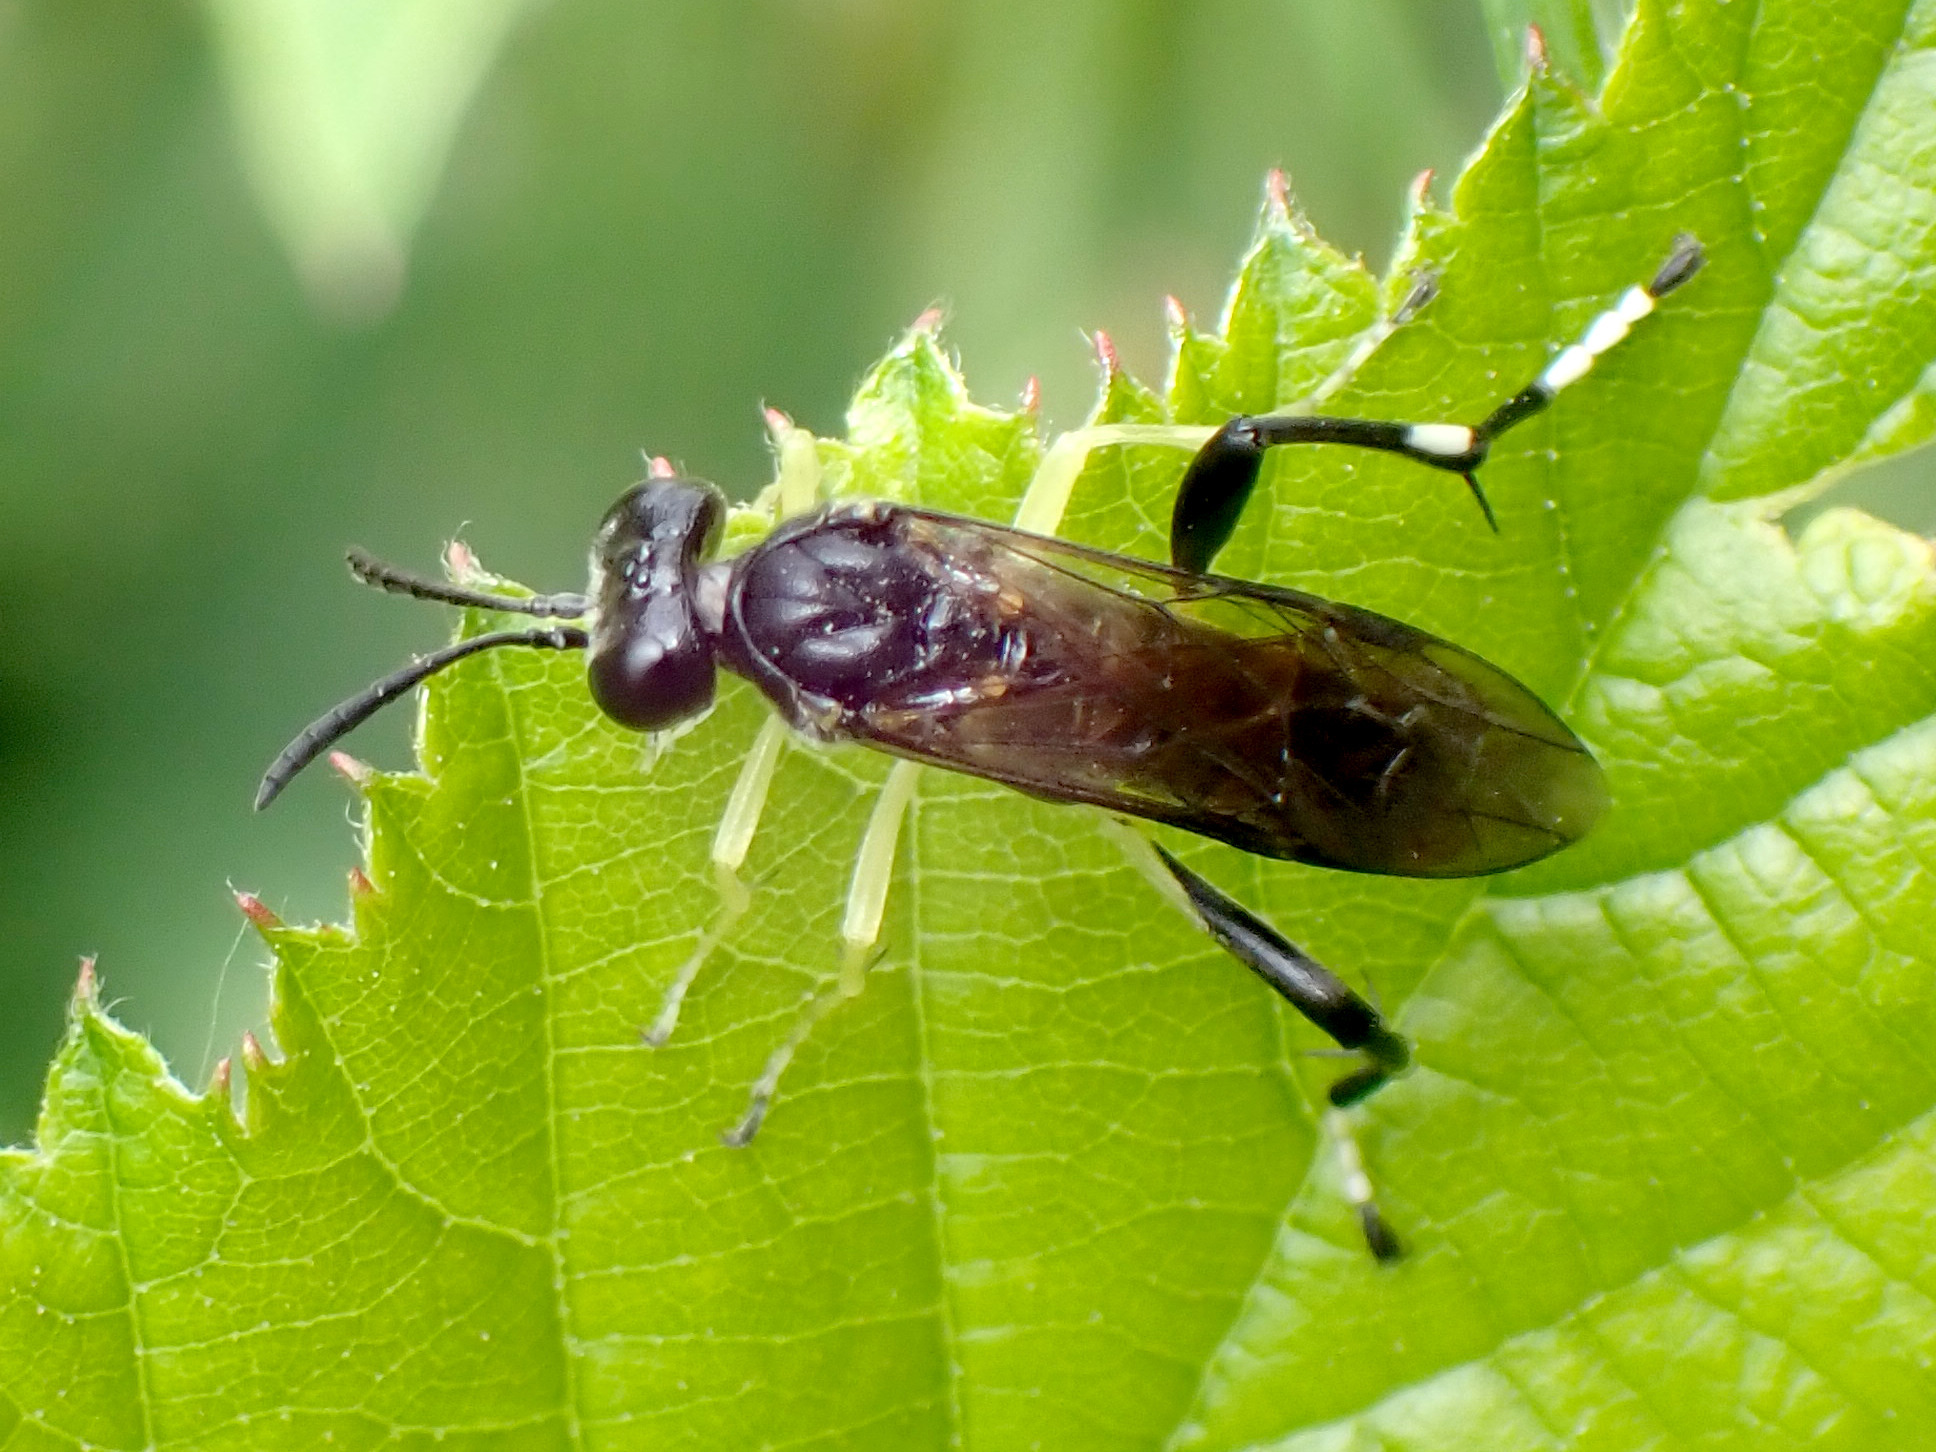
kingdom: Animalia
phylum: Arthropoda
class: Insecta
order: Hymenoptera
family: Tenthredinidae
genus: Macrophya
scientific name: Macrophya montana
